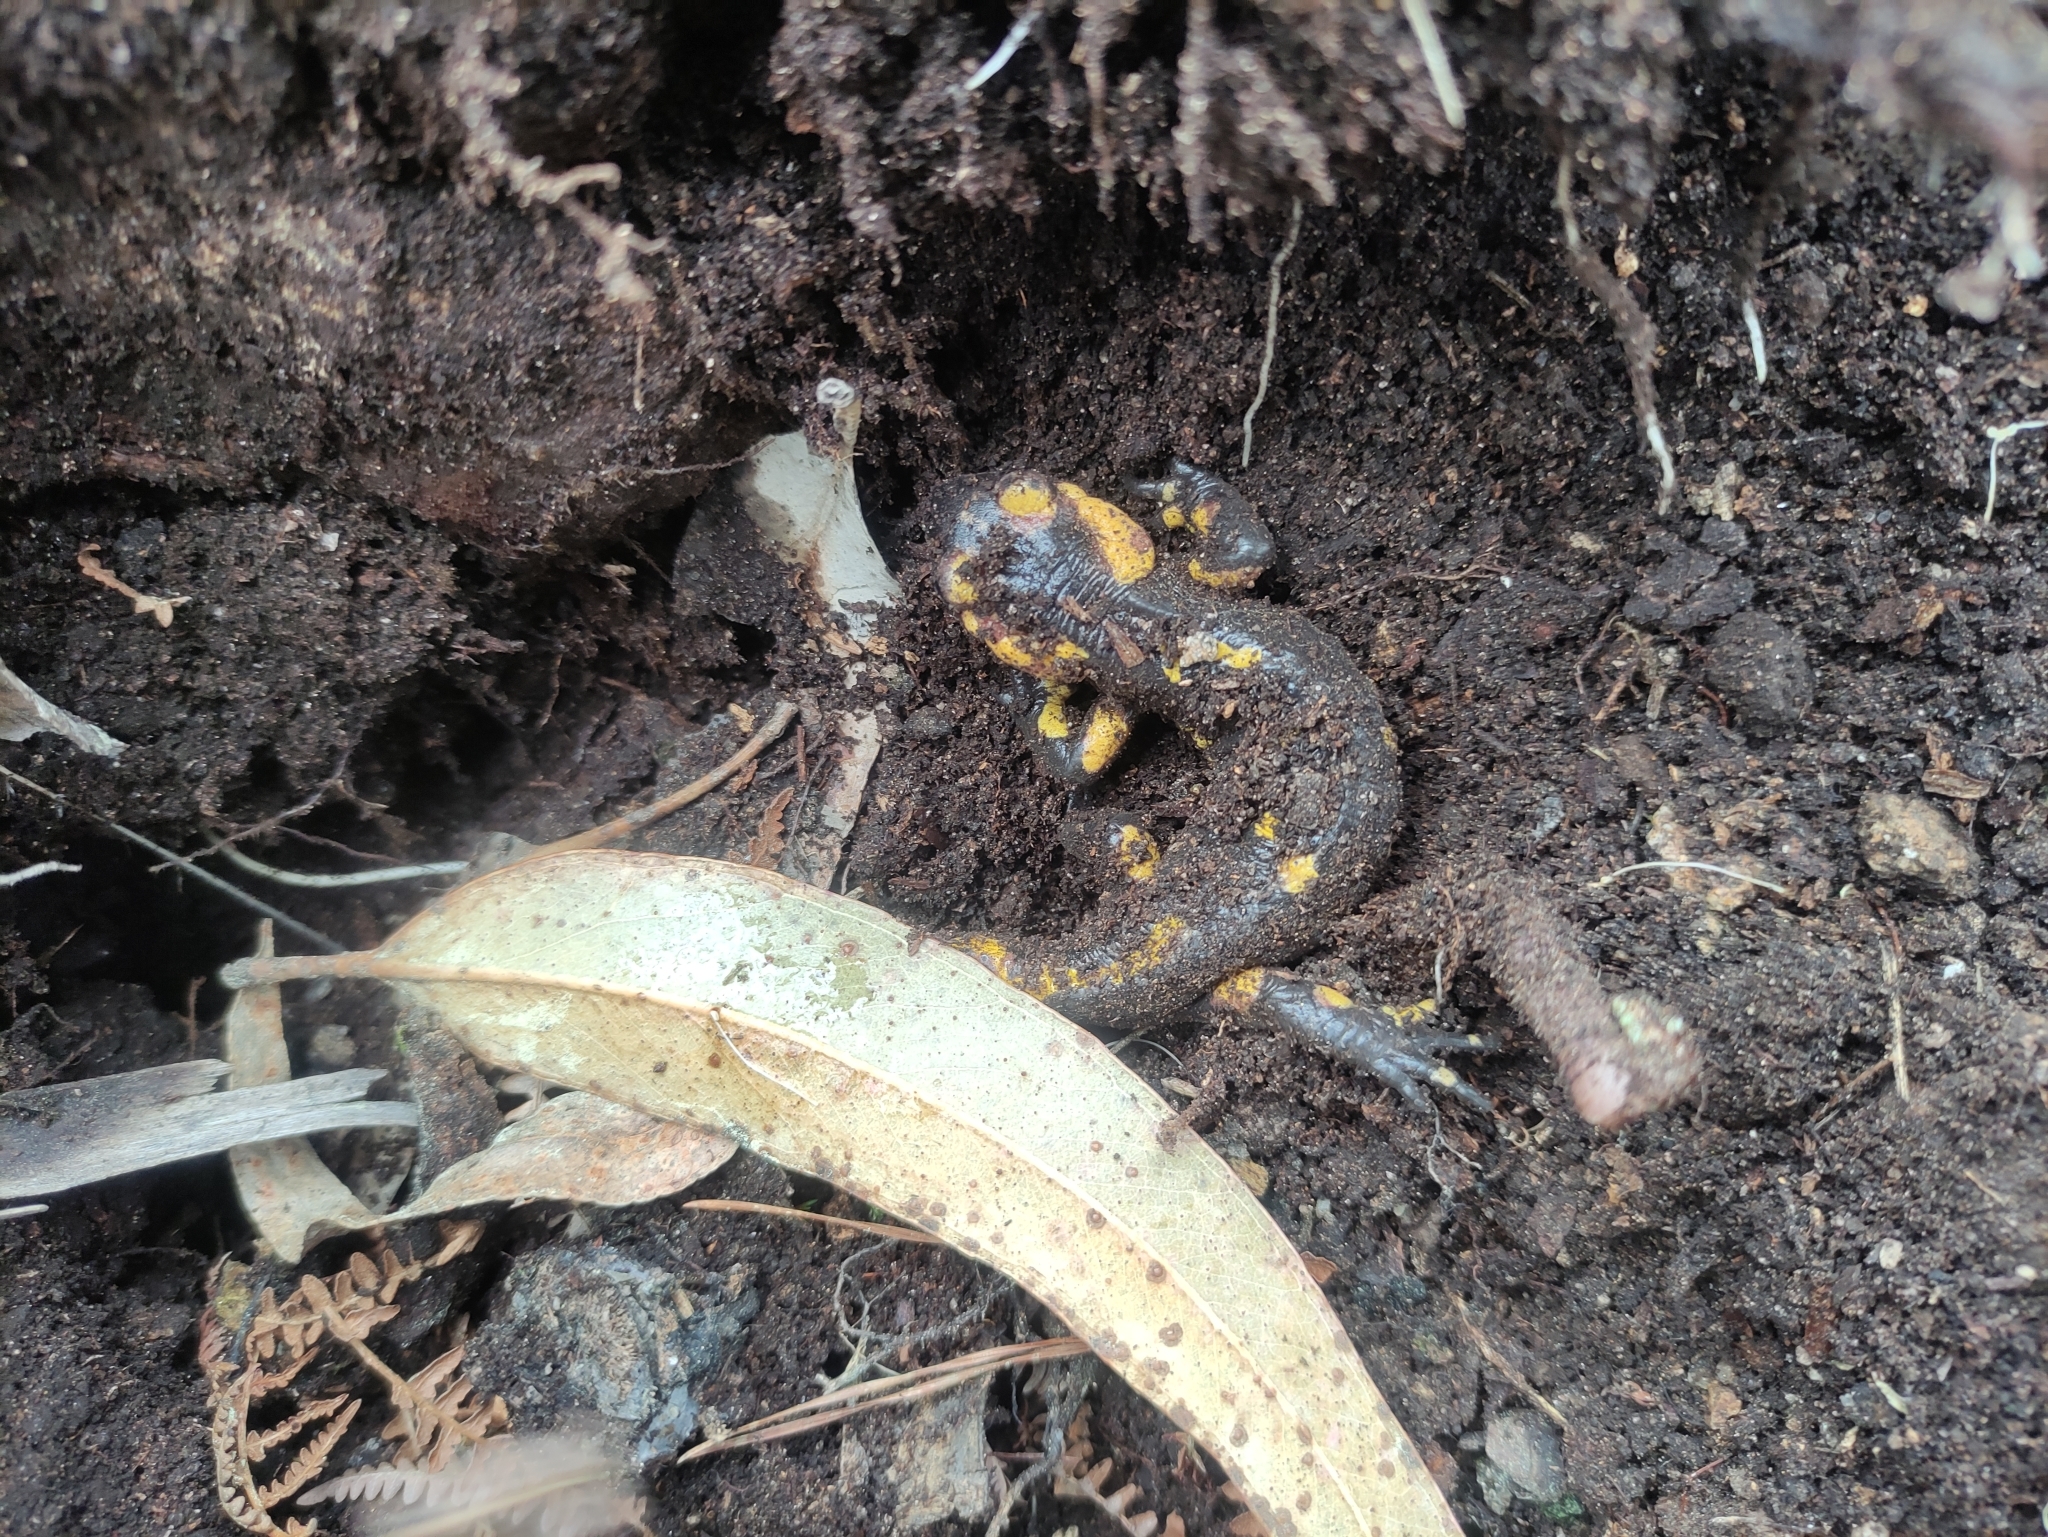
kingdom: Animalia
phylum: Chordata
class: Amphibia
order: Caudata
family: Salamandridae
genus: Salamandra
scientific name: Salamandra salamandra
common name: Fire salamander
